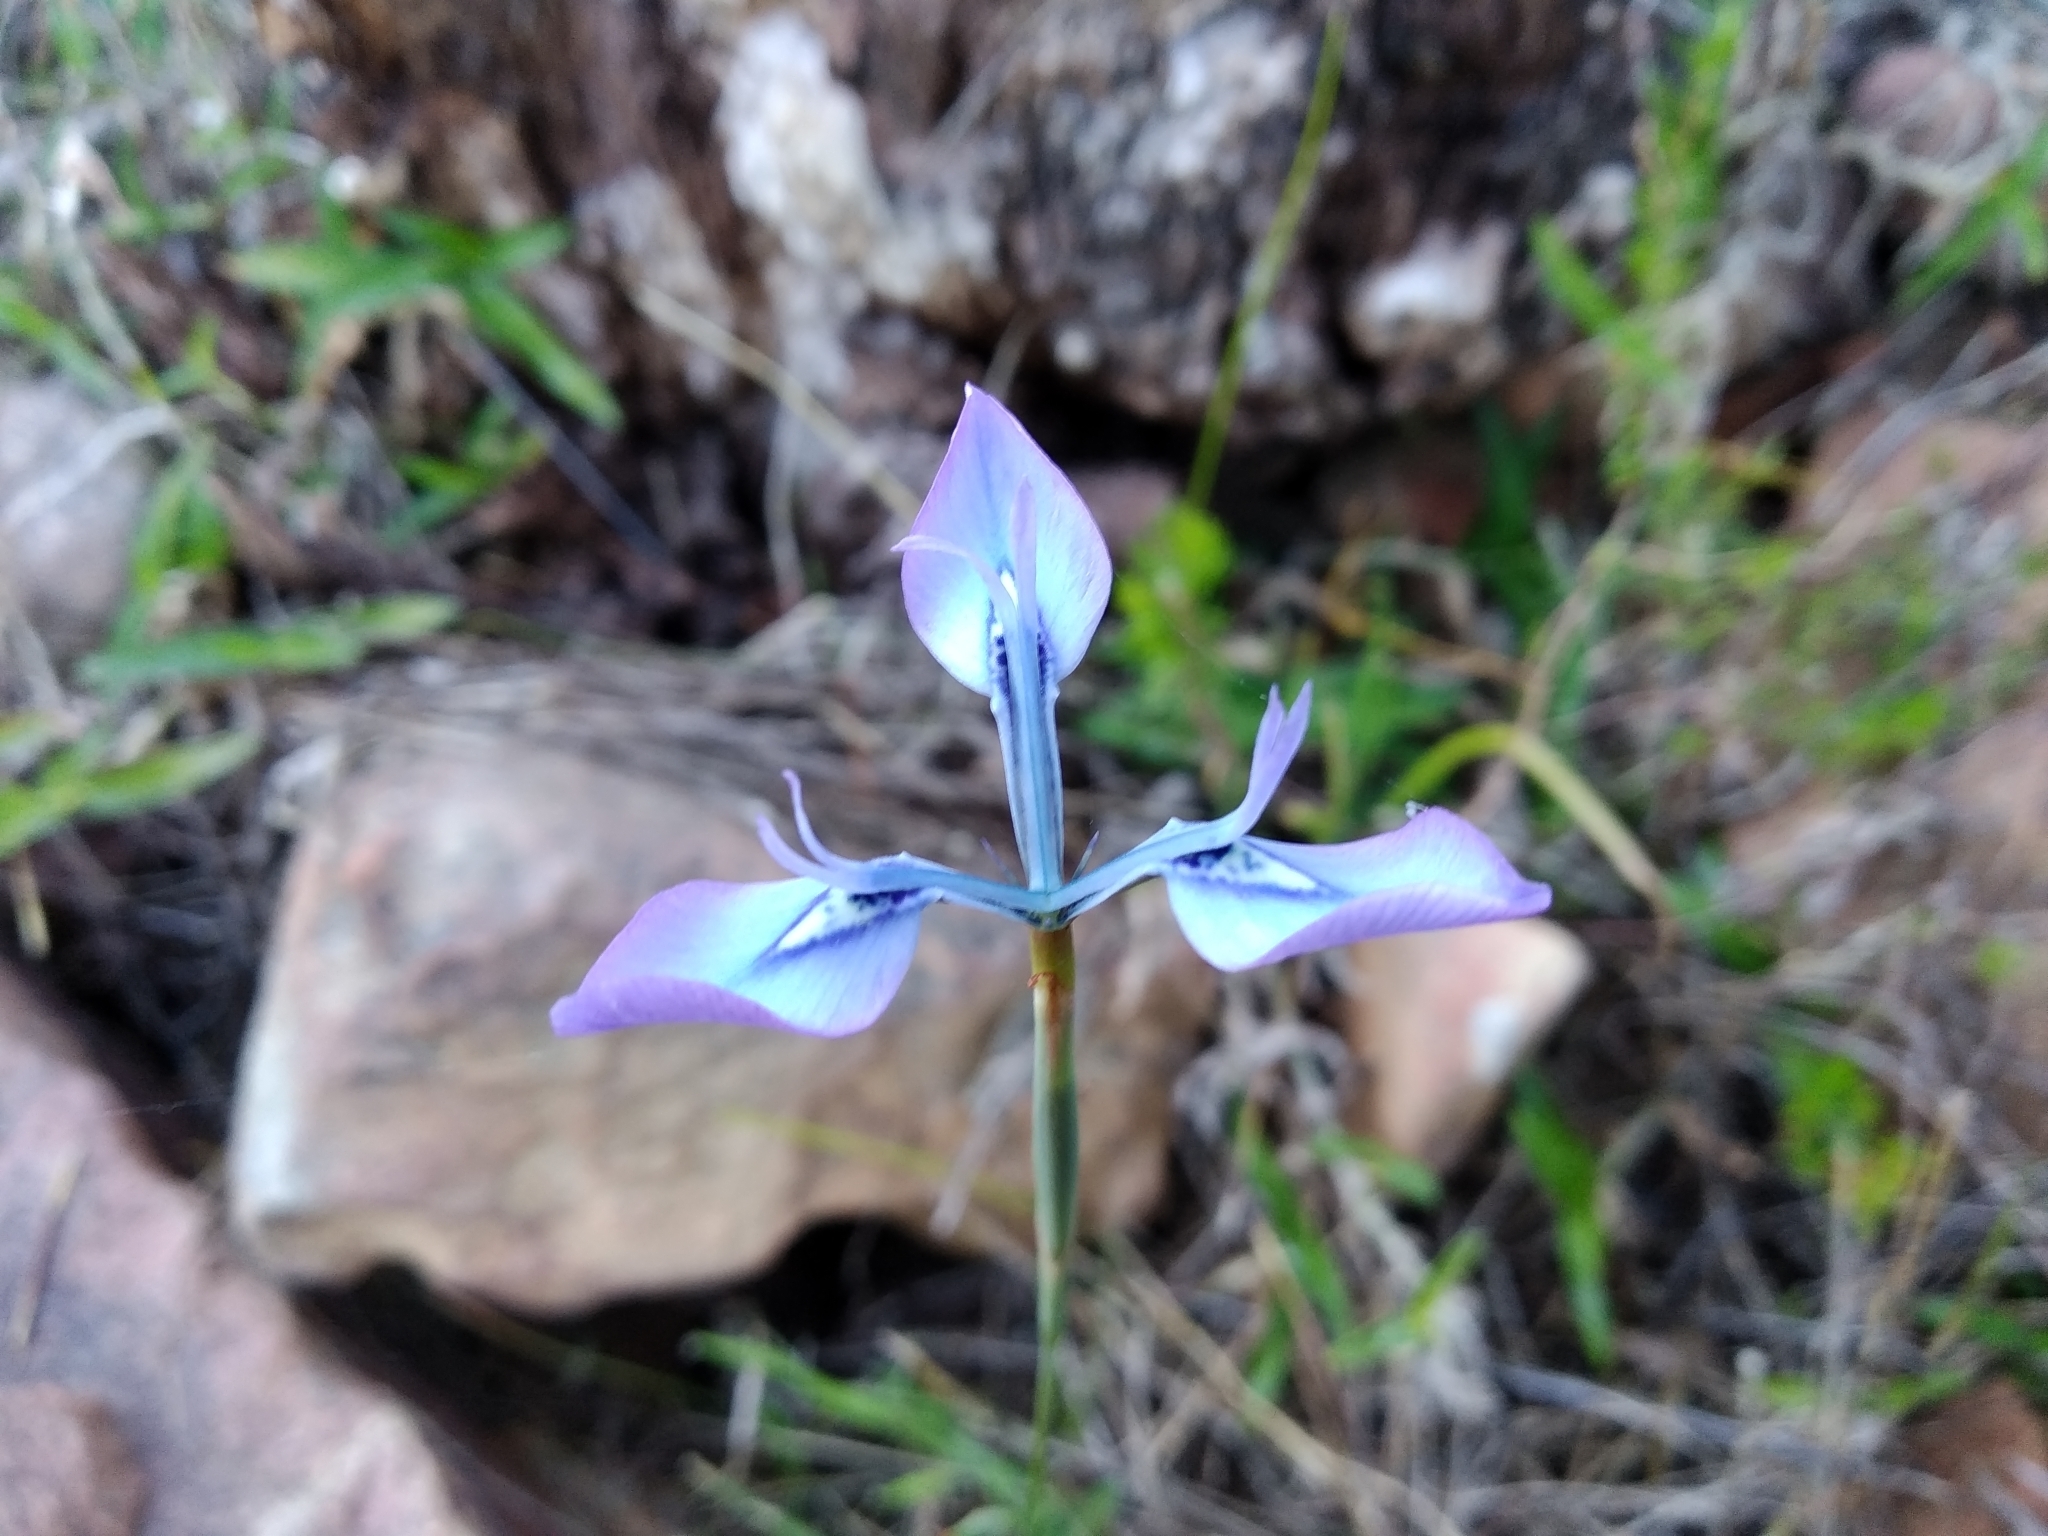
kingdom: Plantae
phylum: Tracheophyta
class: Liliopsida
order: Asparagales
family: Iridaceae
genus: Moraea
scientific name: Moraea tripetala
